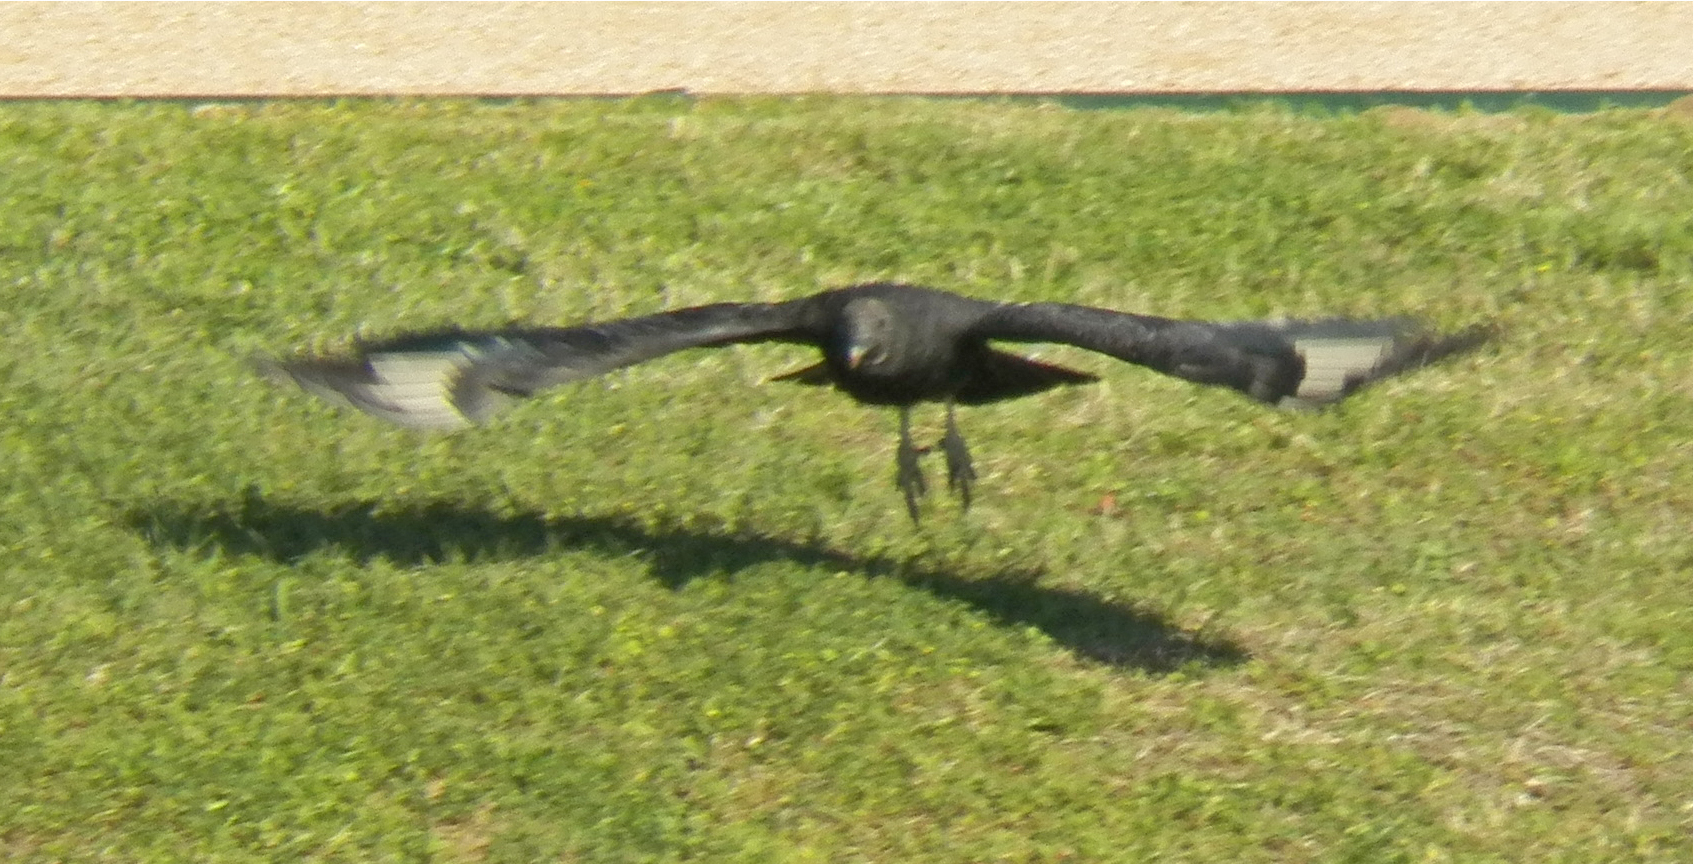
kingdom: Animalia
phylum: Chordata
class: Aves
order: Accipitriformes
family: Cathartidae
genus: Coragyps
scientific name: Coragyps atratus
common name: Black vulture
